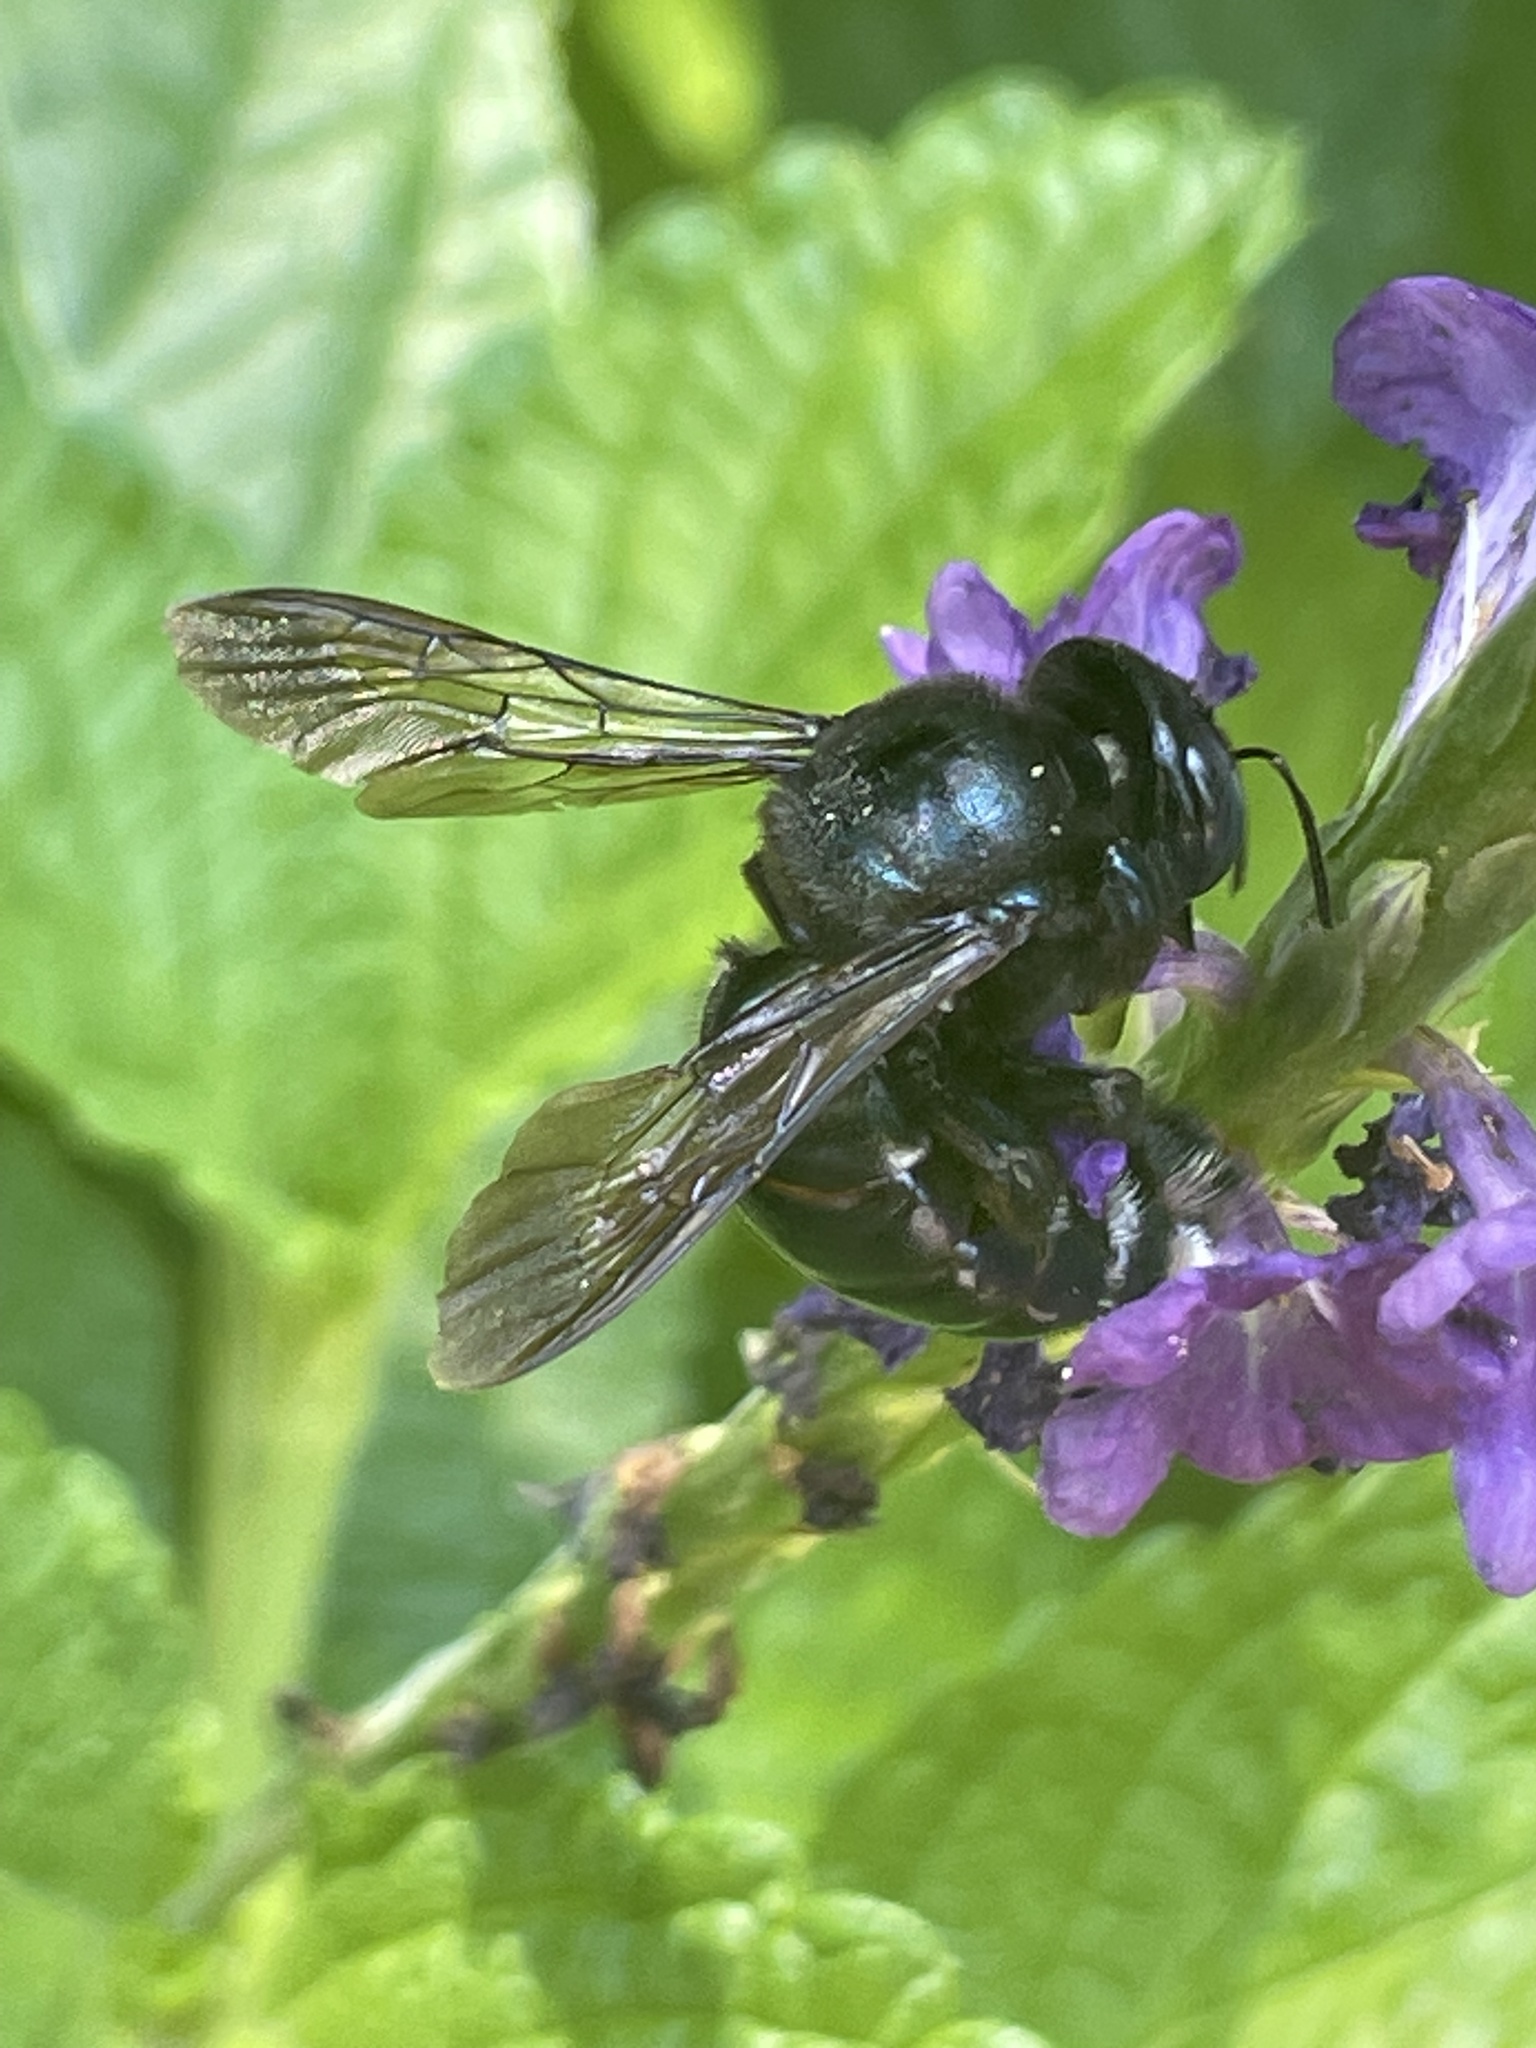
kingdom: Animalia
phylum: Arthropoda
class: Insecta
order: Hymenoptera
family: Apidae
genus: Xylocopa
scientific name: Xylocopa micans
